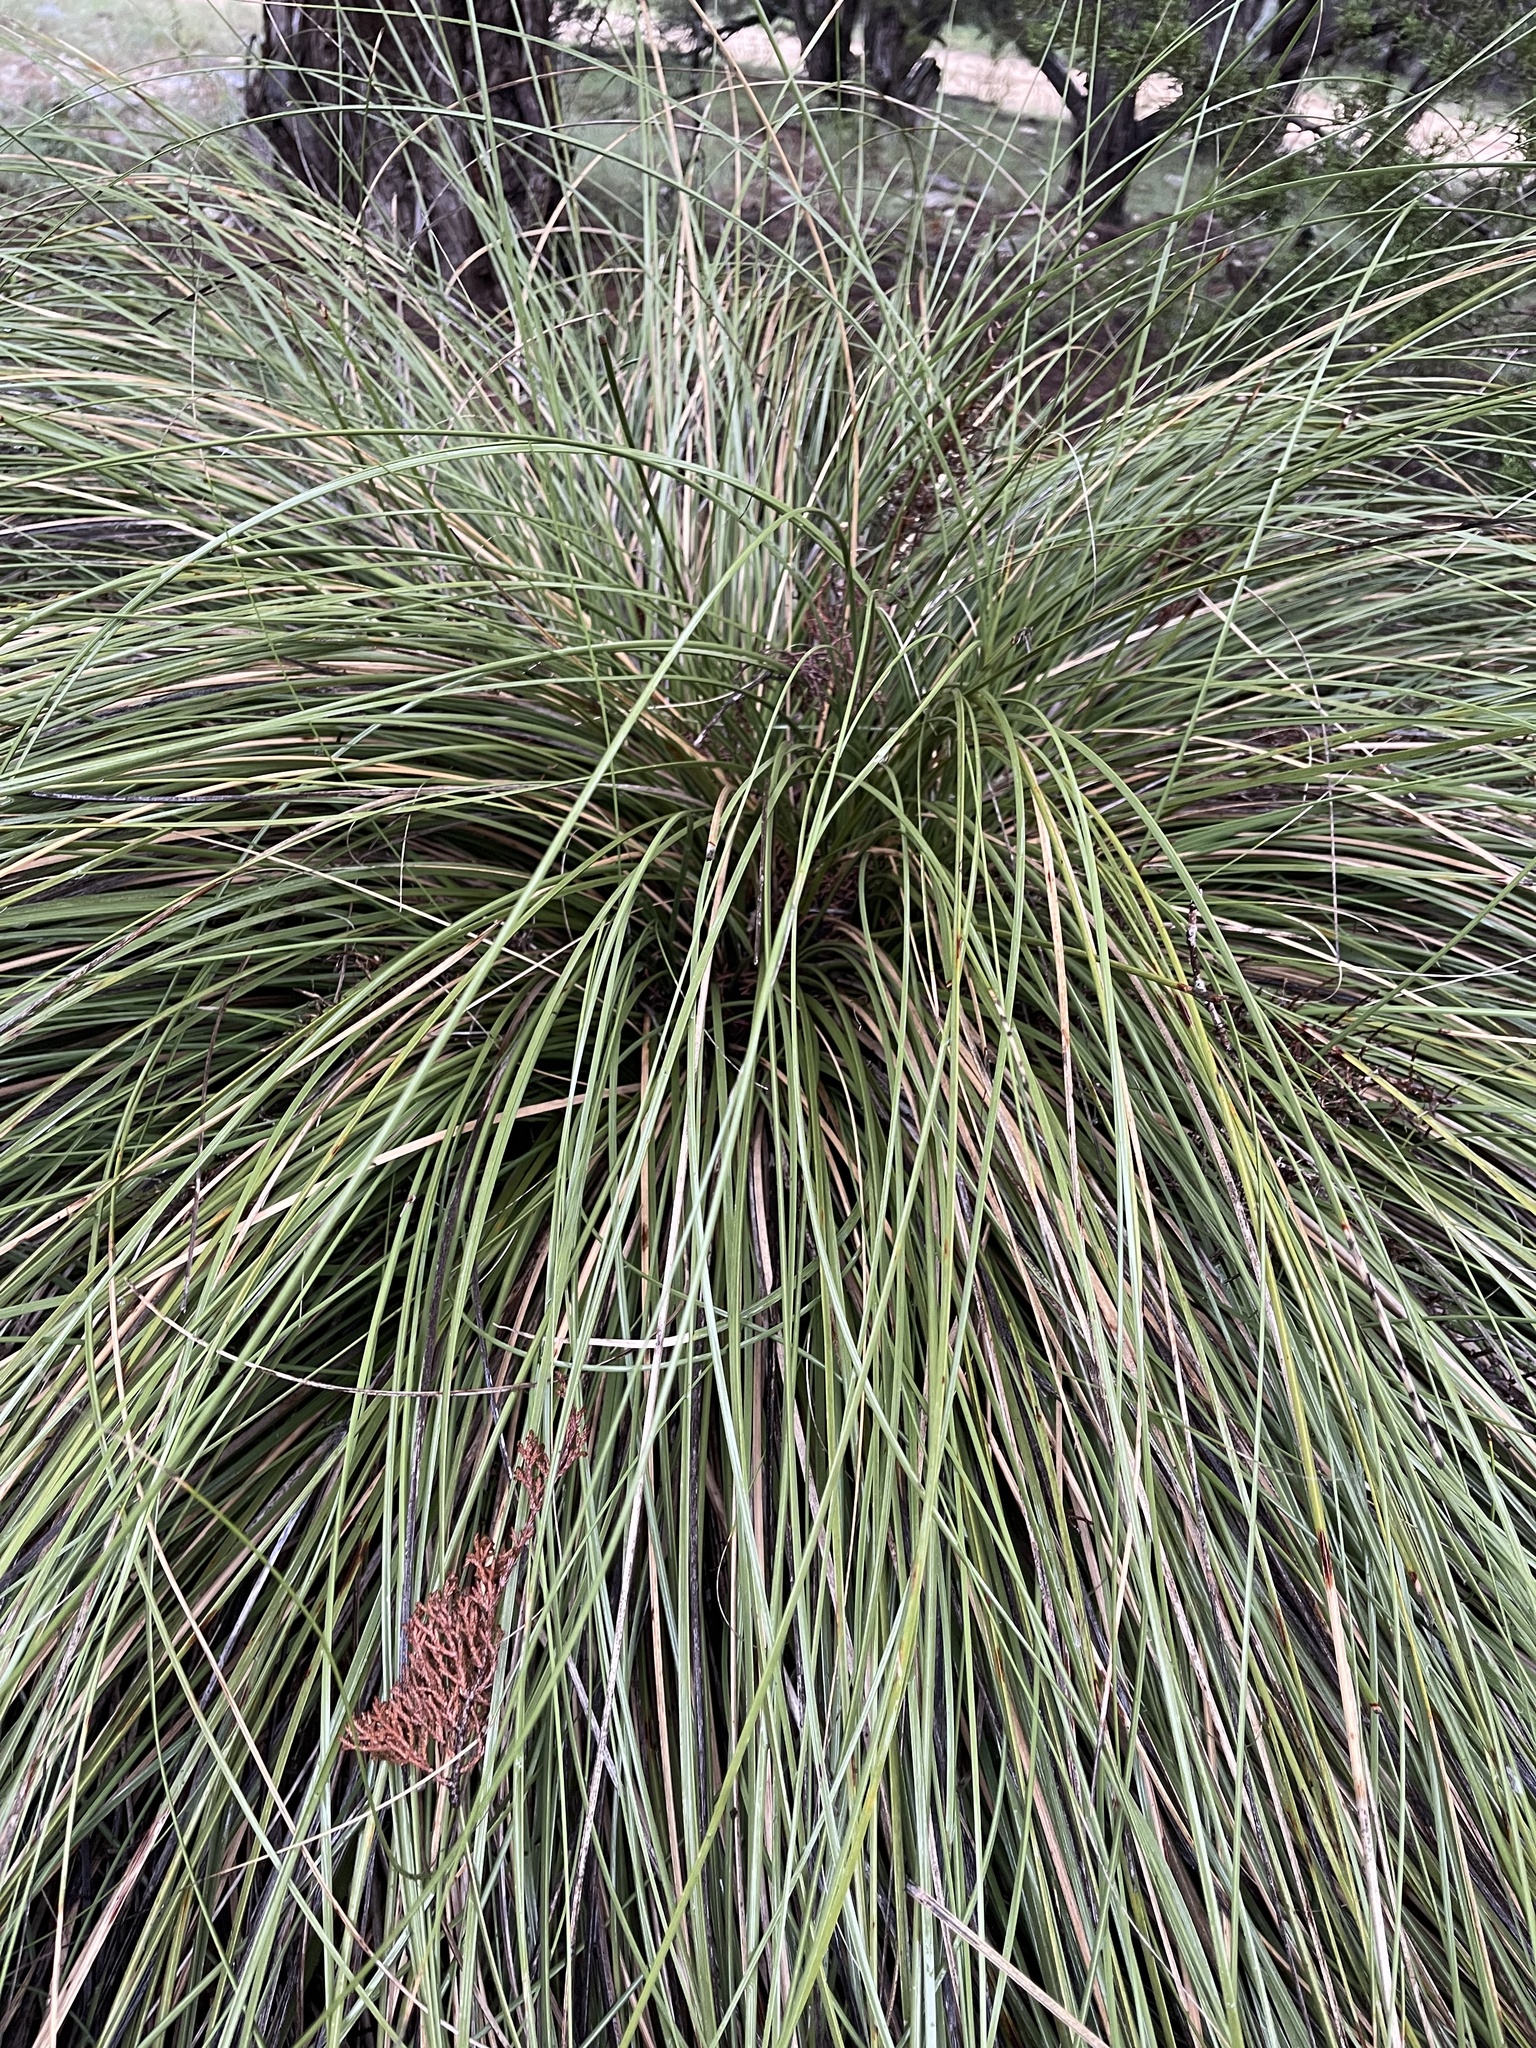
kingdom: Plantae
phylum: Tracheophyta
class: Liliopsida
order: Asparagales
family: Asparagaceae
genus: Nolina
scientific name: Nolina texana
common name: Texas sacahuiste
